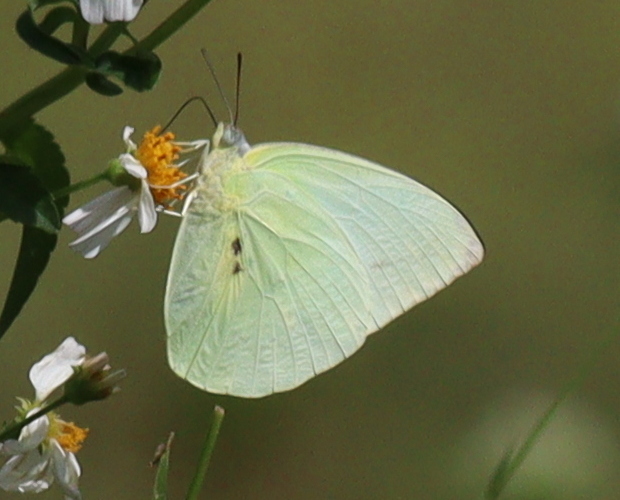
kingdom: Animalia
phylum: Arthropoda
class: Insecta
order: Lepidoptera
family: Pieridae
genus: Catopsilia
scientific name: Catopsilia pomona
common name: Common emigrant
